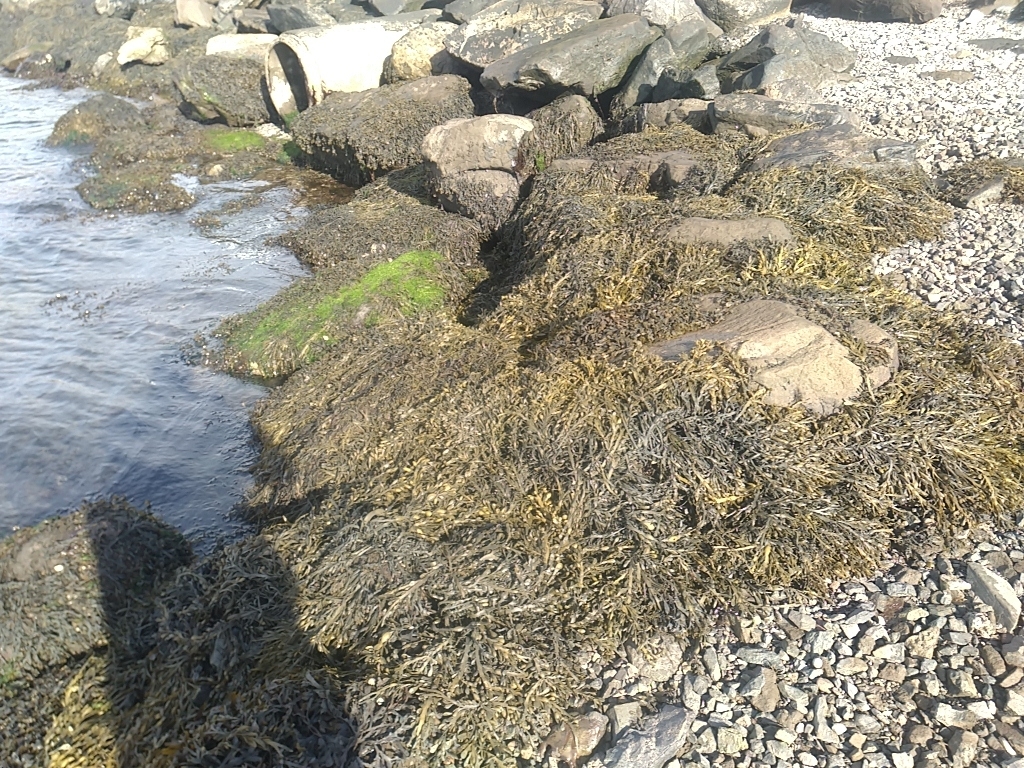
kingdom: Chromista
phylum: Ochrophyta
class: Phaeophyceae
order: Fucales
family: Fucaceae
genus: Ascophyllum
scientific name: Ascophyllum nodosum
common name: Knotted wrack
